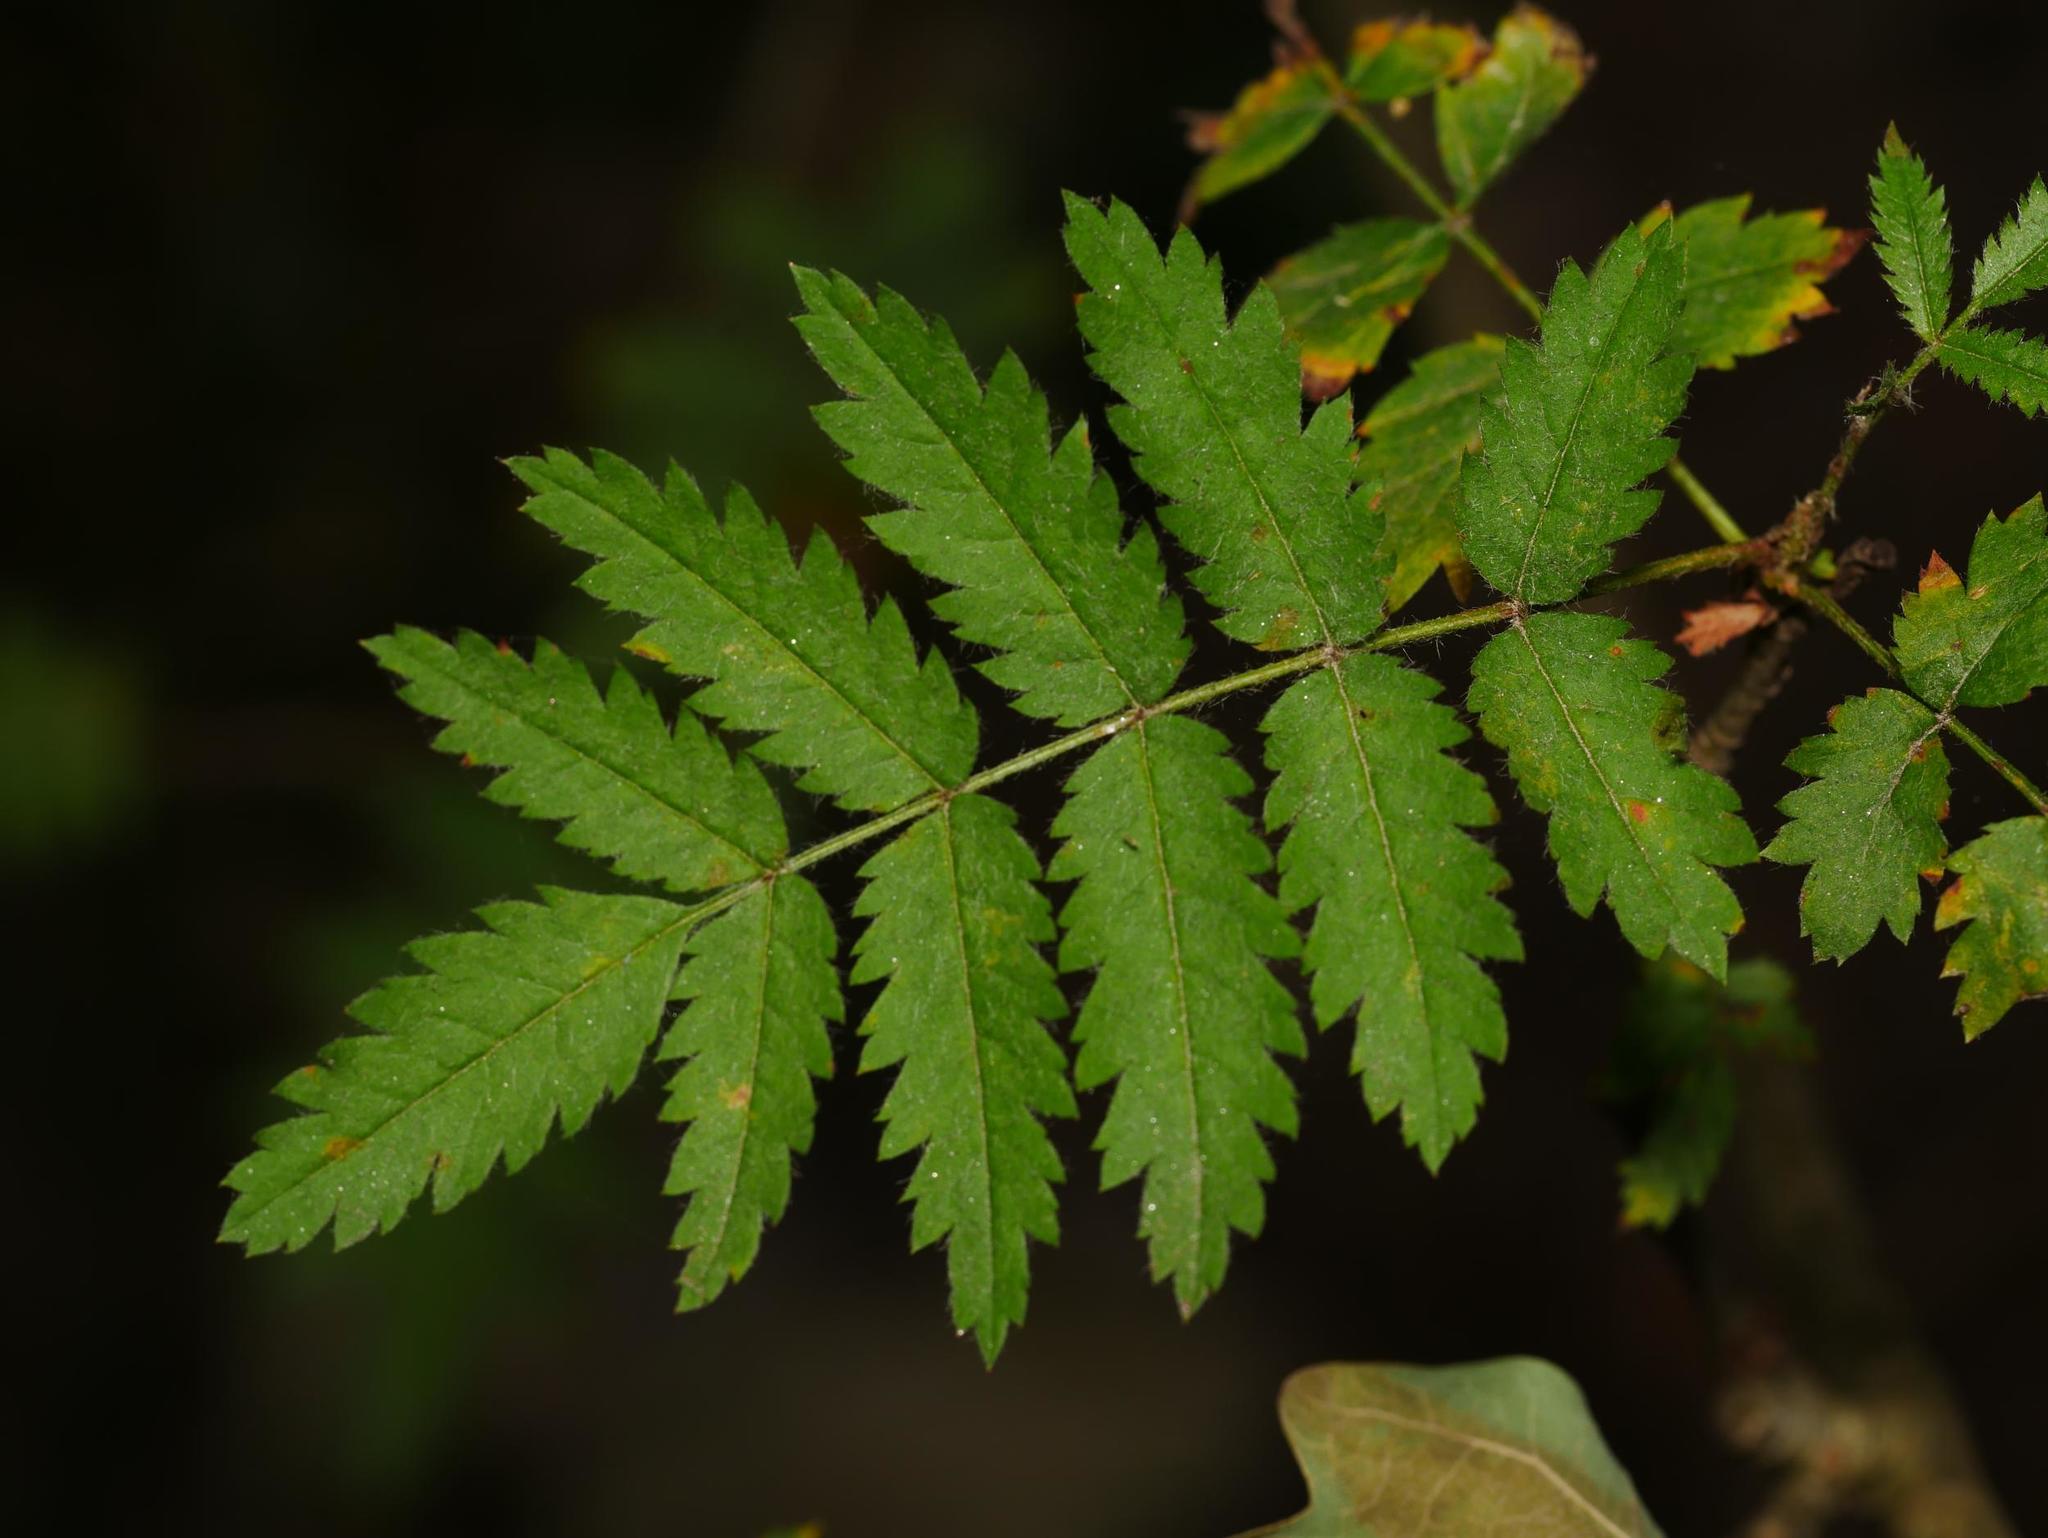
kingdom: Plantae
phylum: Tracheophyta
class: Magnoliopsida
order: Rosales
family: Rosaceae
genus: Sorbus
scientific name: Sorbus aucuparia
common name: Rowan
